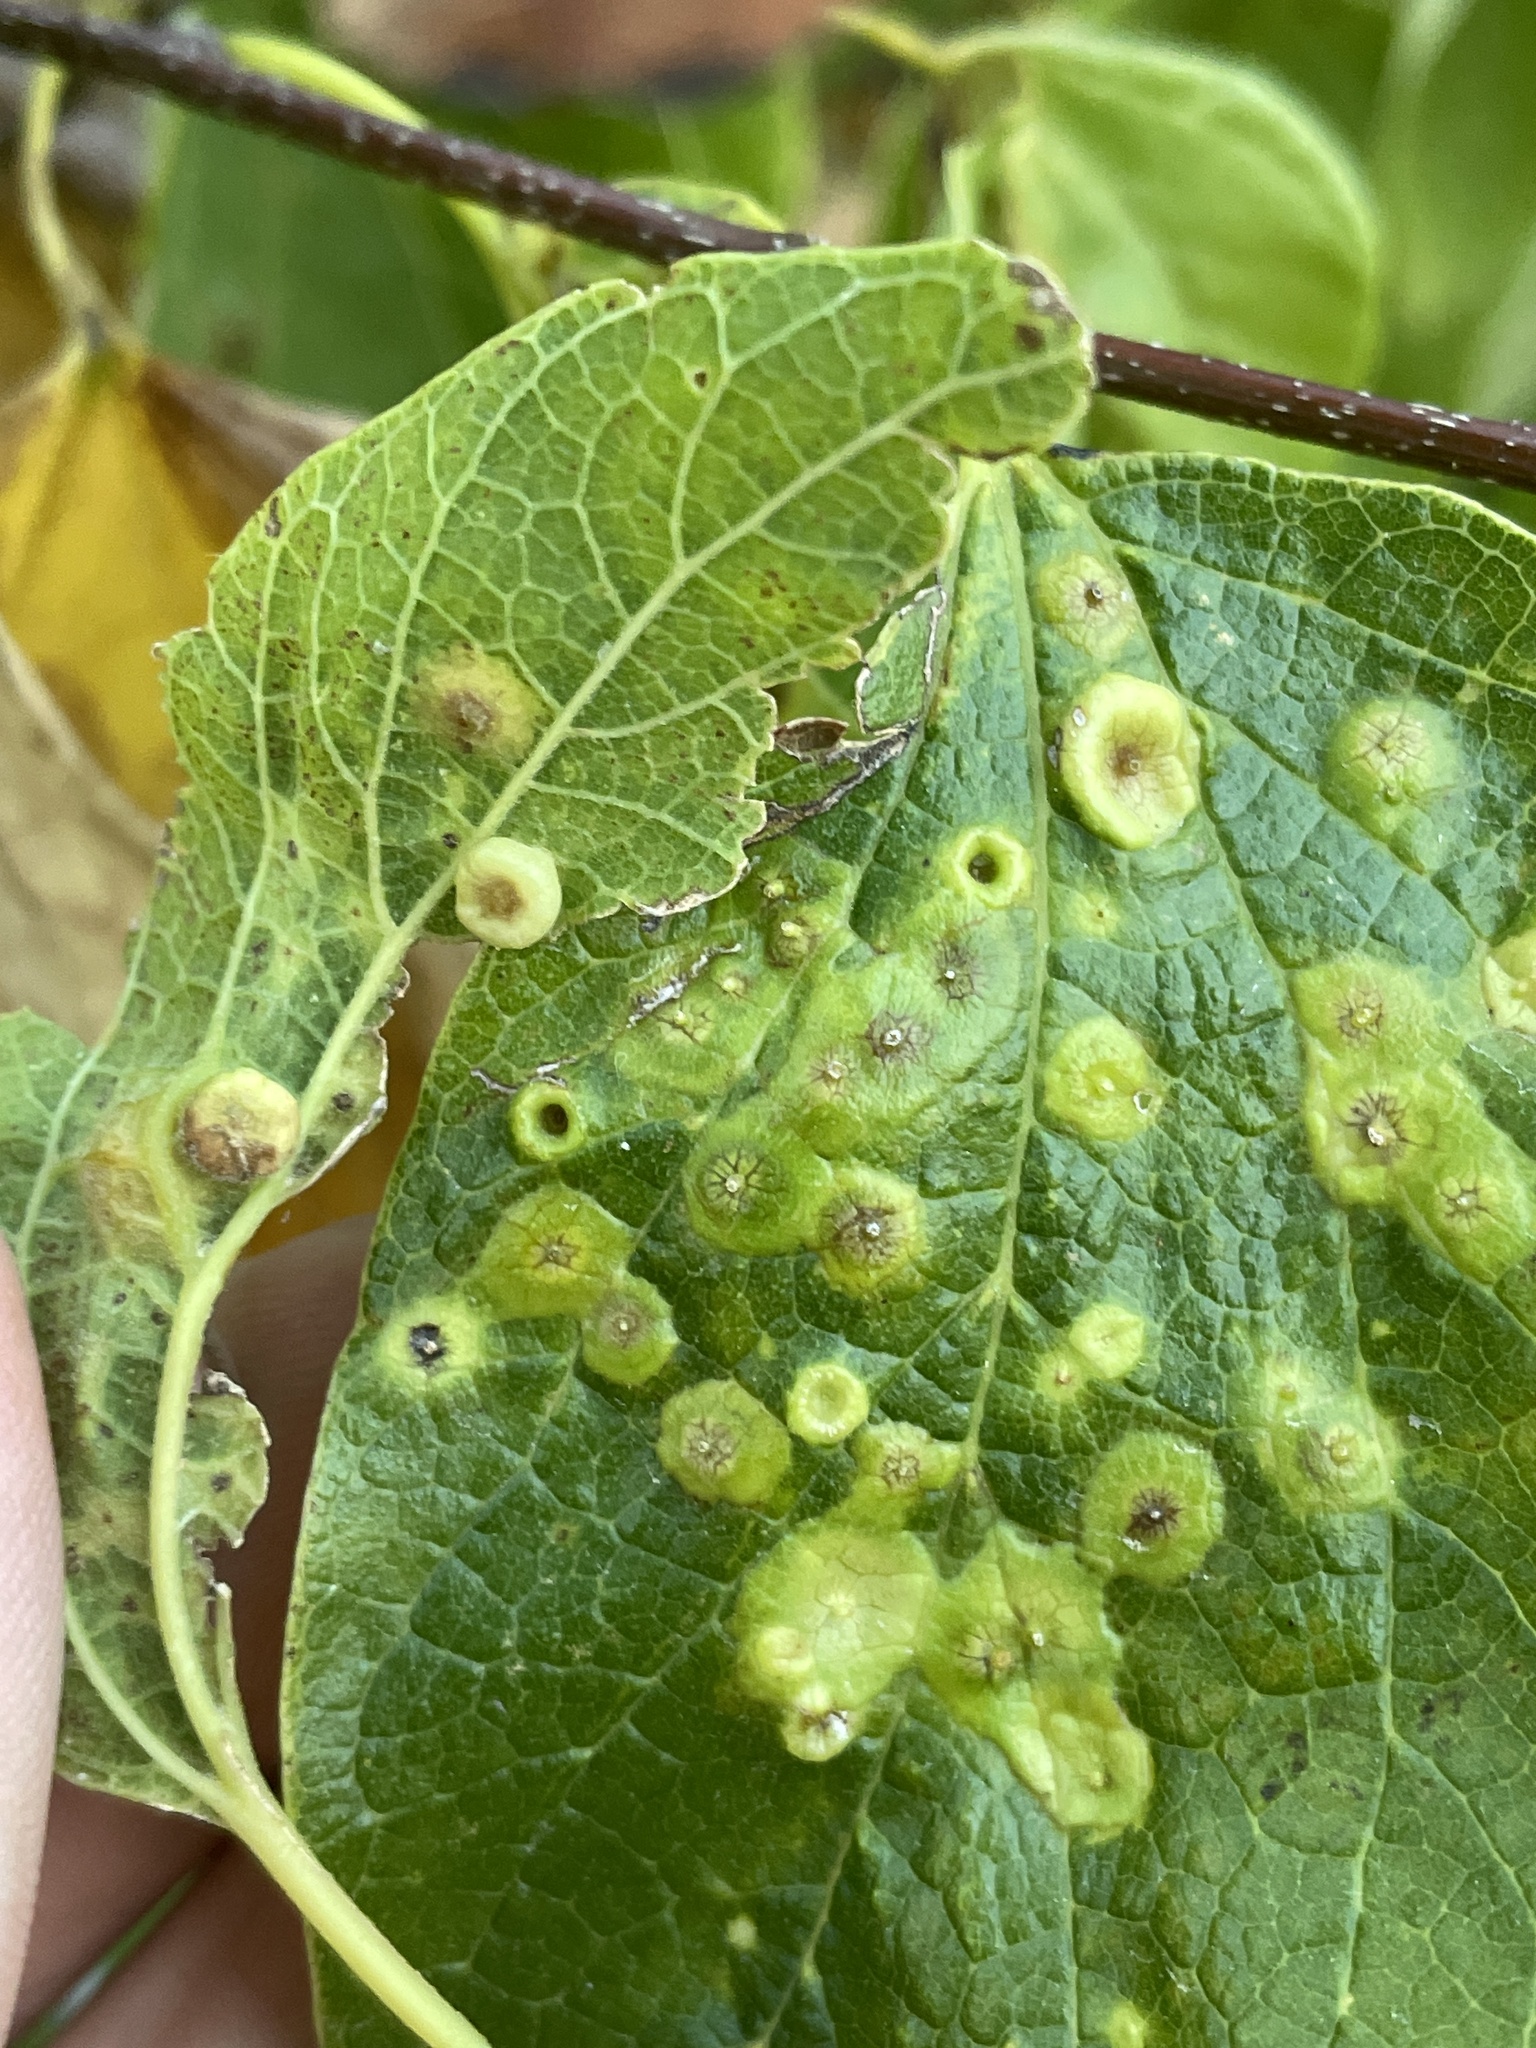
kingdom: Animalia
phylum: Arthropoda
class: Insecta
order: Hemiptera
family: Aphalaridae
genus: Pachypsylla
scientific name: Pachypsylla celtidismamma
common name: Hackberry nipplegall psyllid
